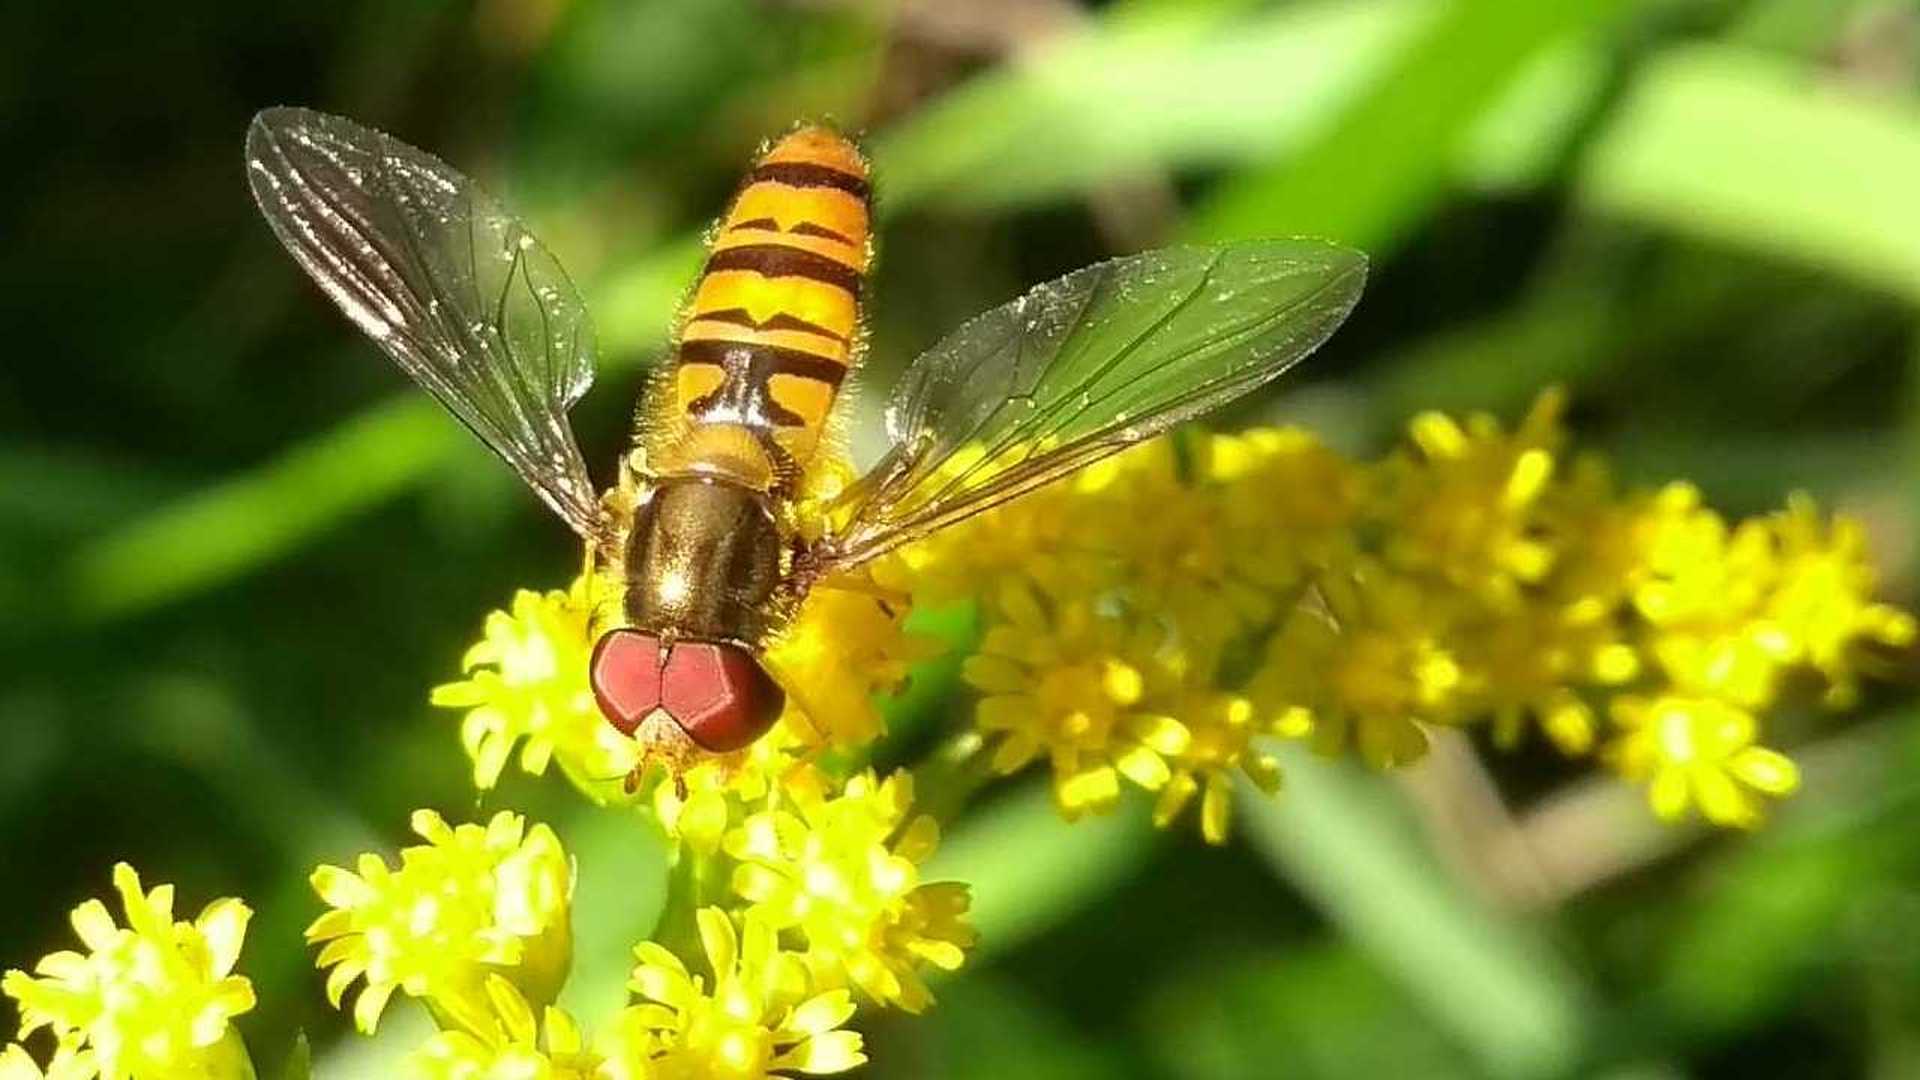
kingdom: Animalia
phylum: Arthropoda
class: Insecta
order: Diptera
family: Syrphidae
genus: Episyrphus
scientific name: Episyrphus balteatus
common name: Marmalade hoverfly
